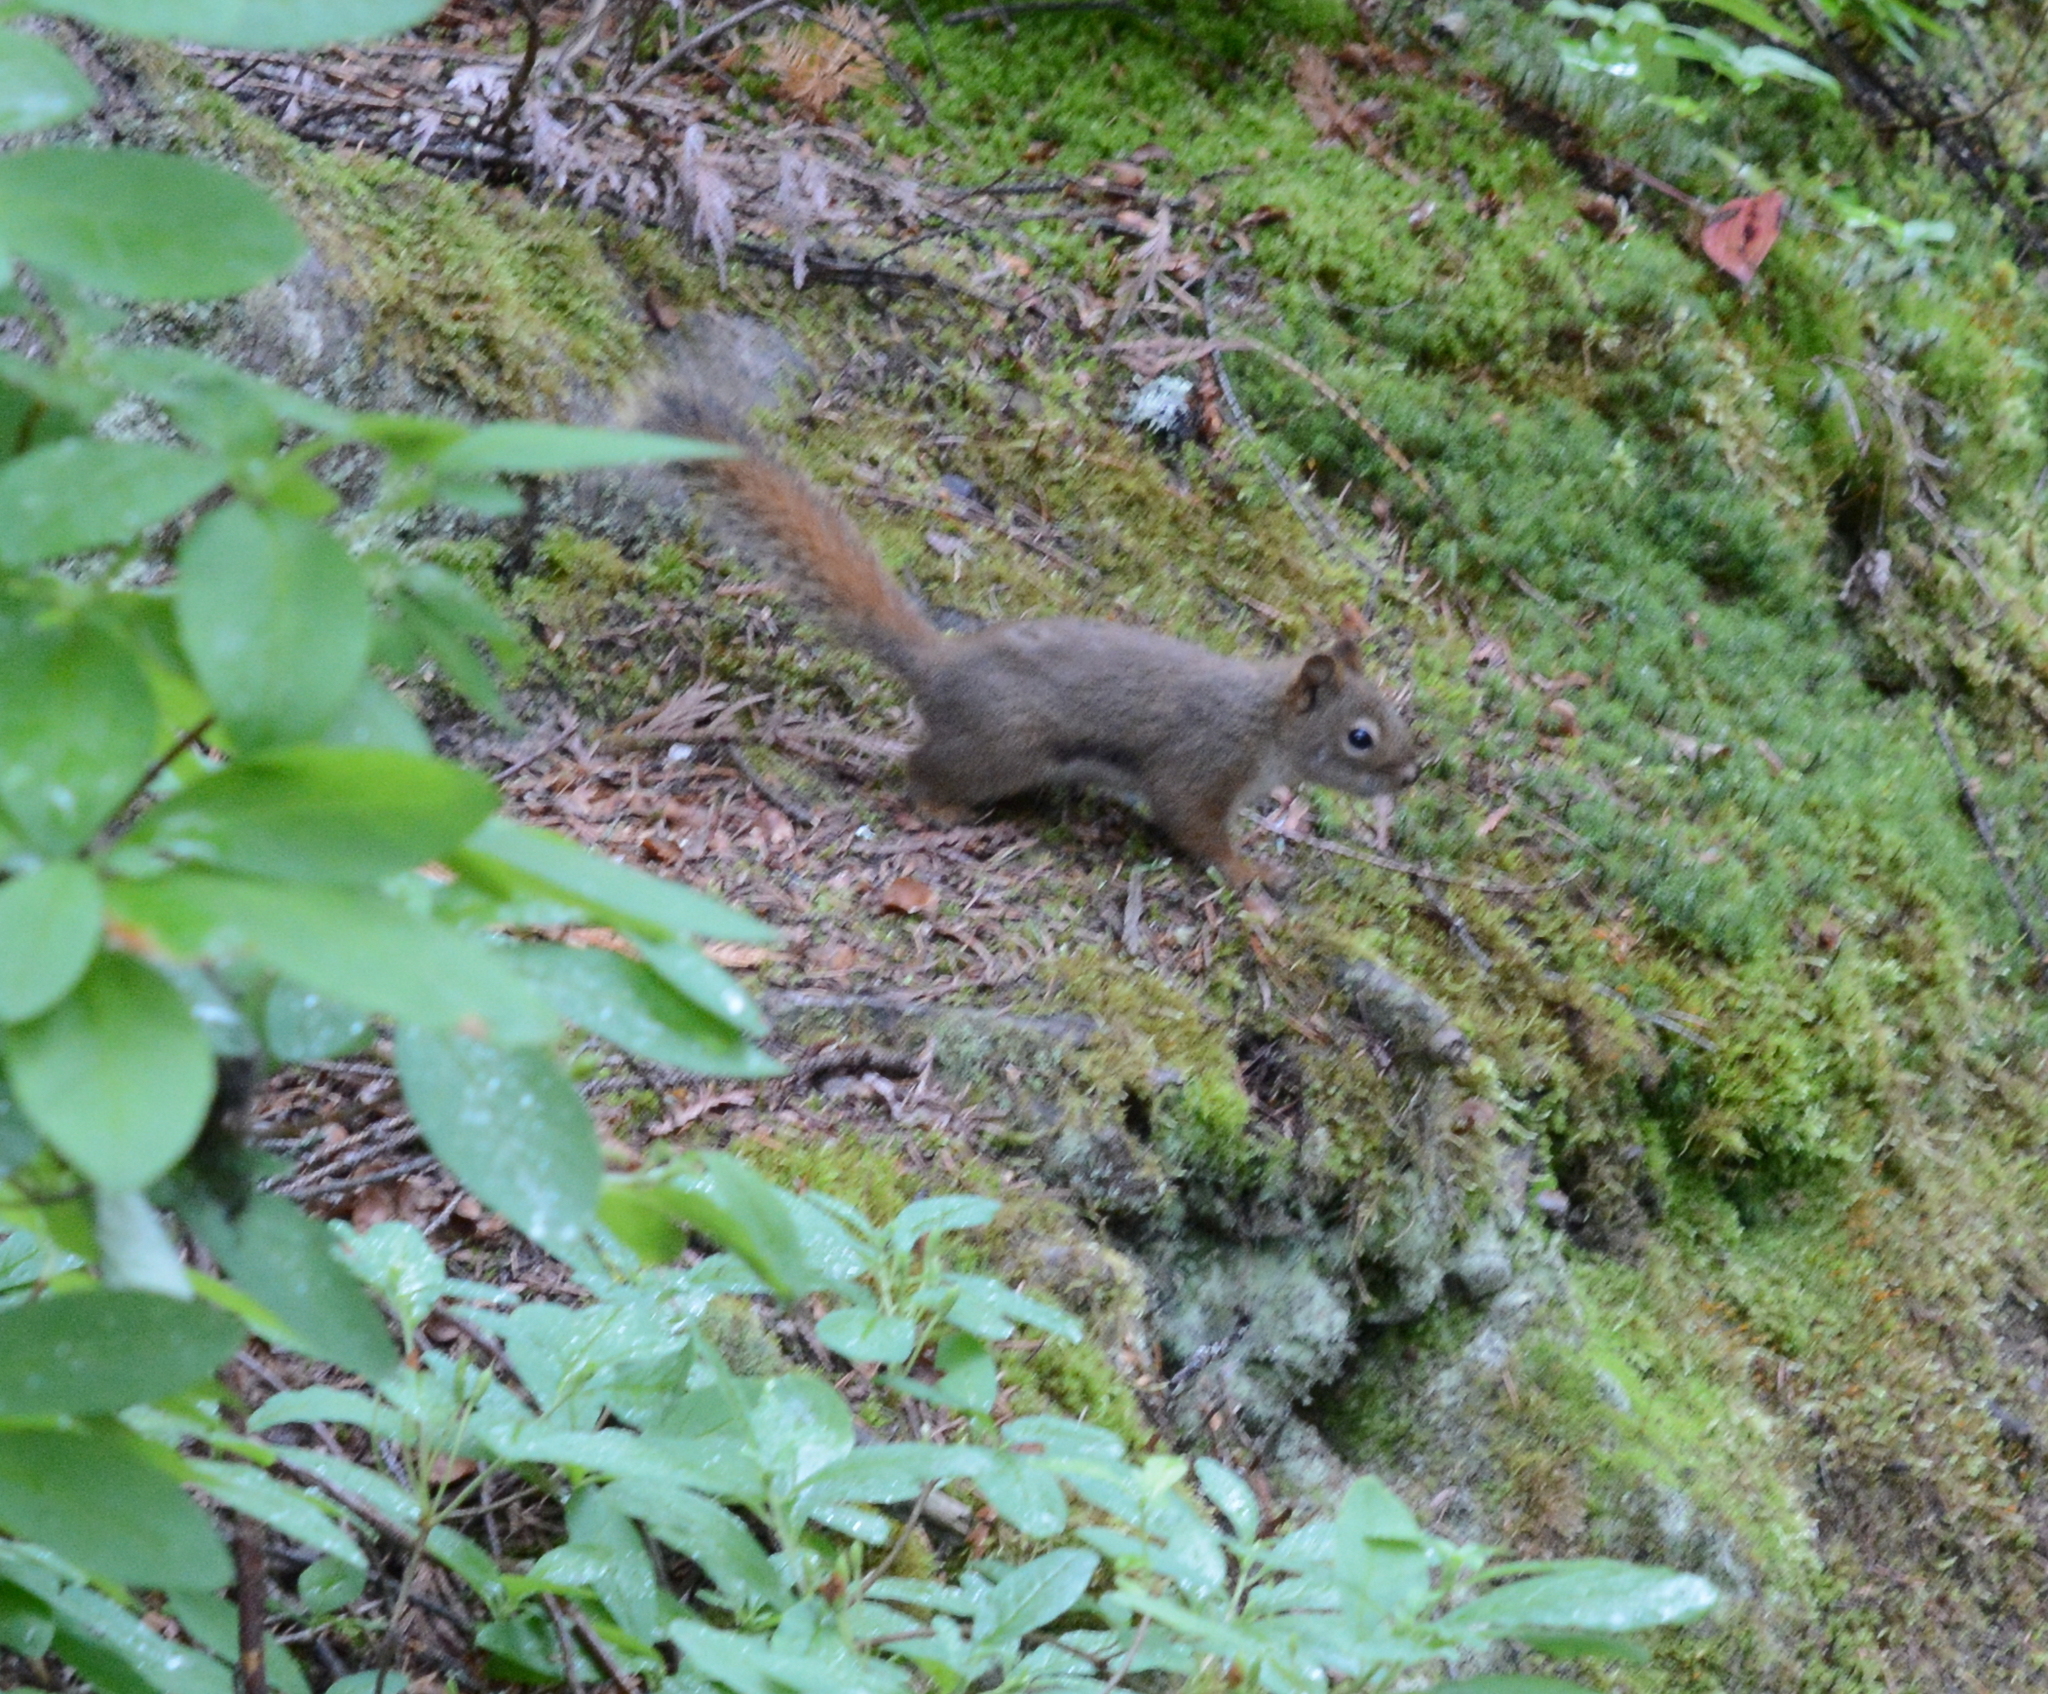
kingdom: Animalia
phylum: Chordata
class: Mammalia
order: Rodentia
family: Sciuridae
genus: Tamiasciurus
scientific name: Tamiasciurus hudsonicus
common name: Red squirrel
